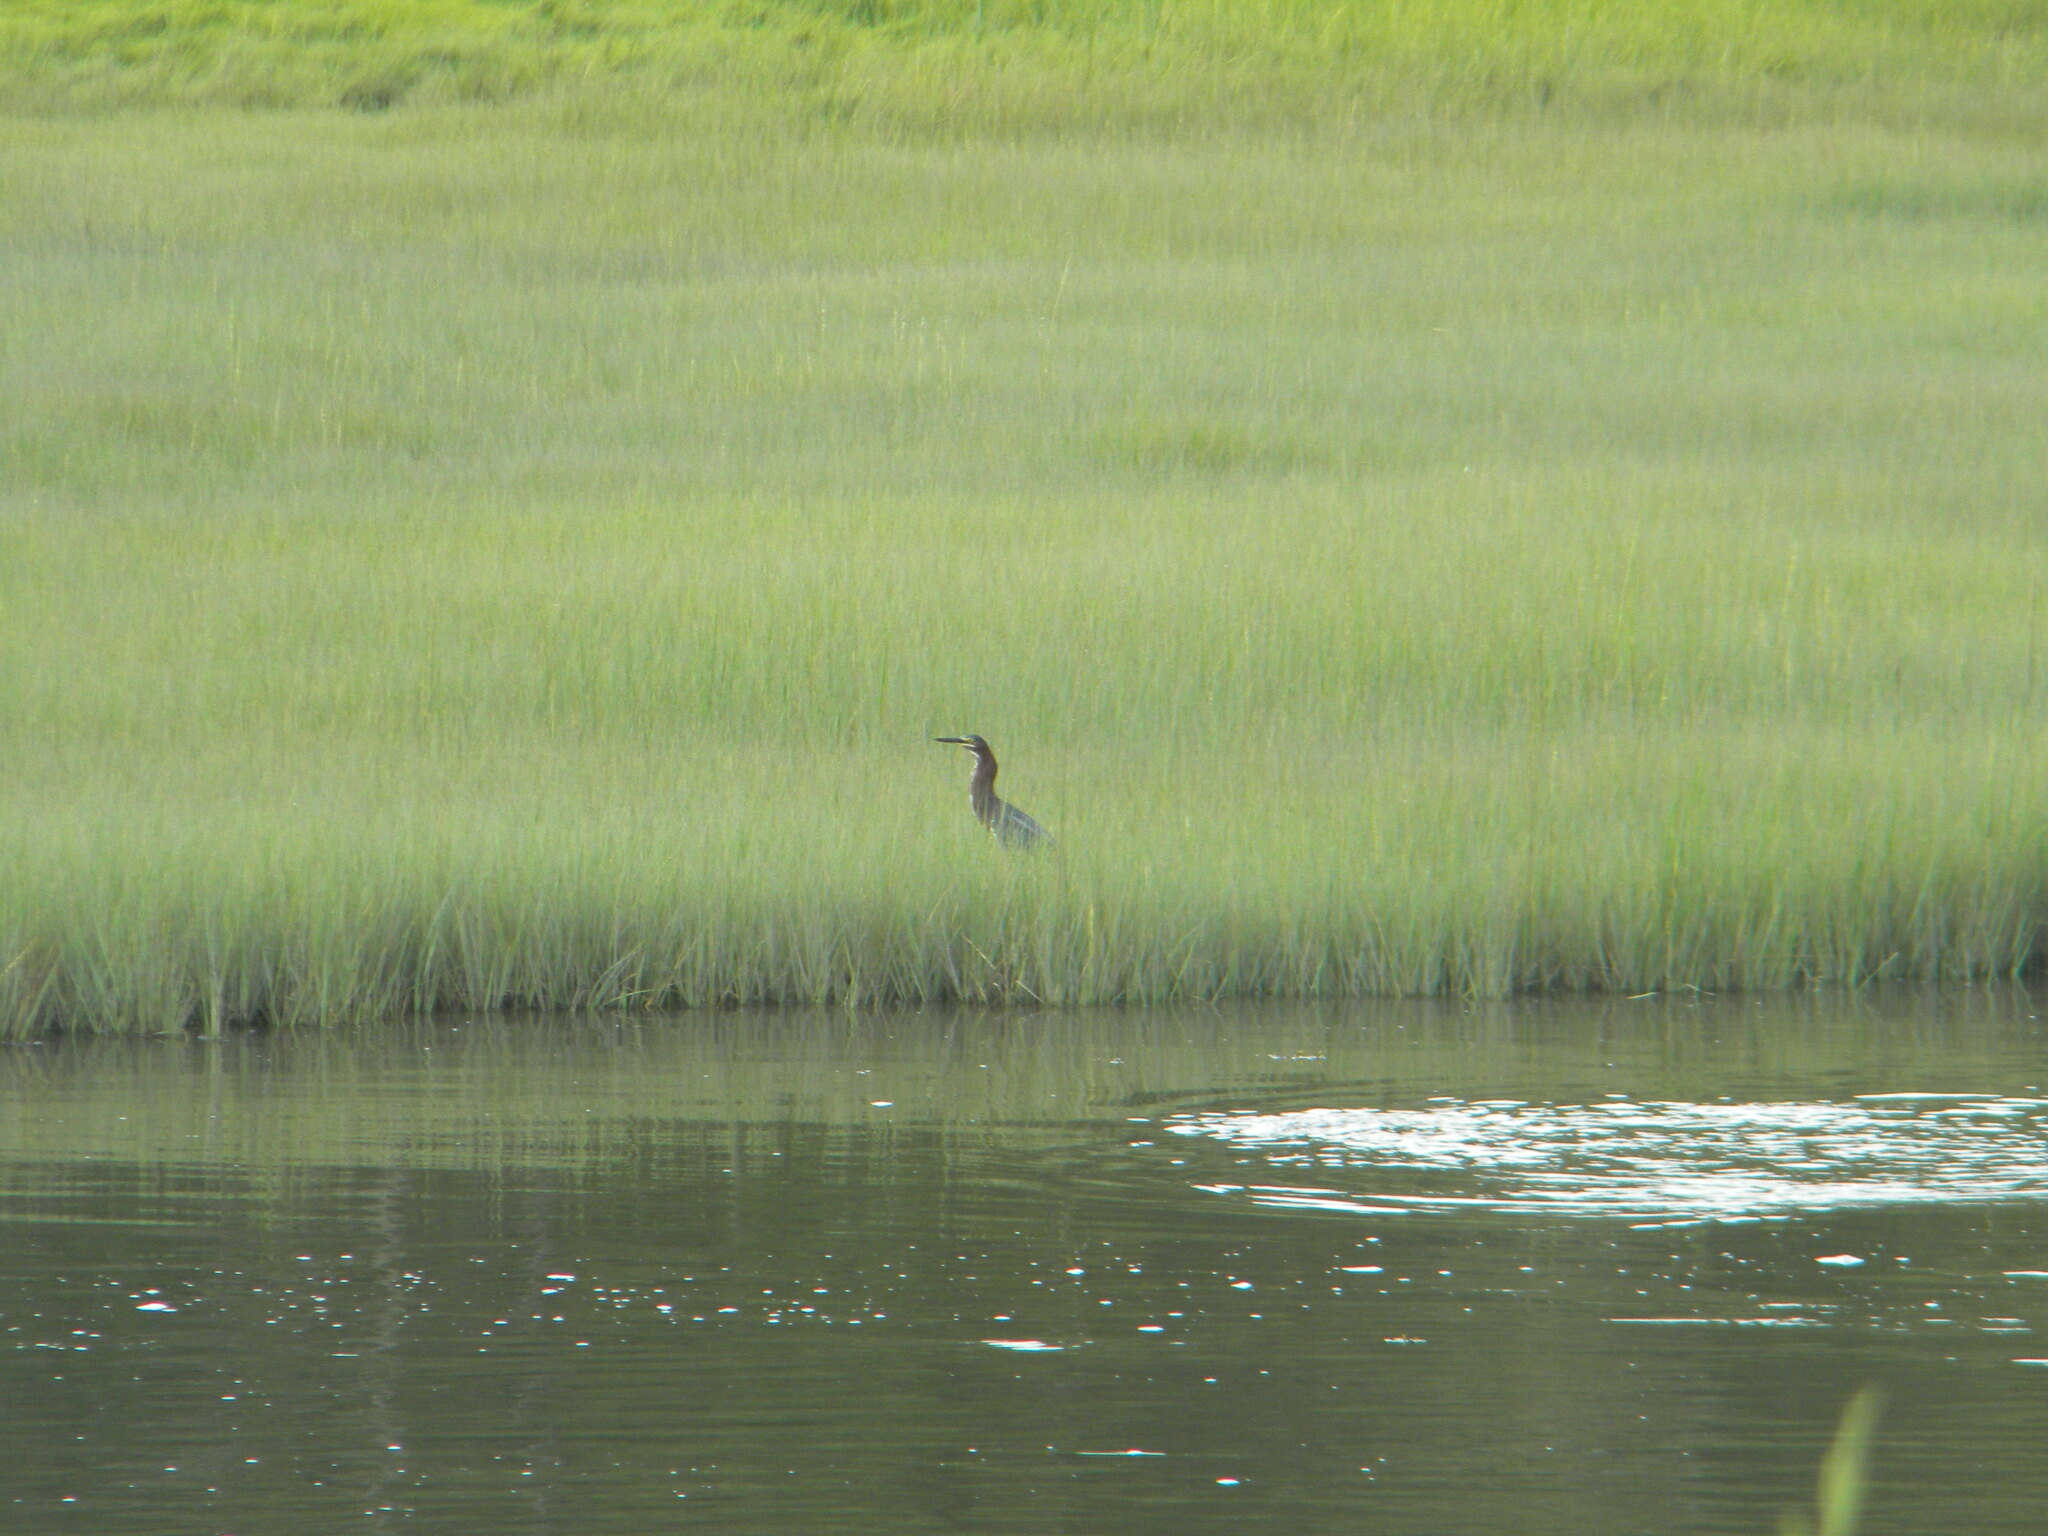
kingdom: Animalia
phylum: Chordata
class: Aves
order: Pelecaniformes
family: Ardeidae
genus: Butorides
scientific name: Butorides virescens
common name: Green heron
